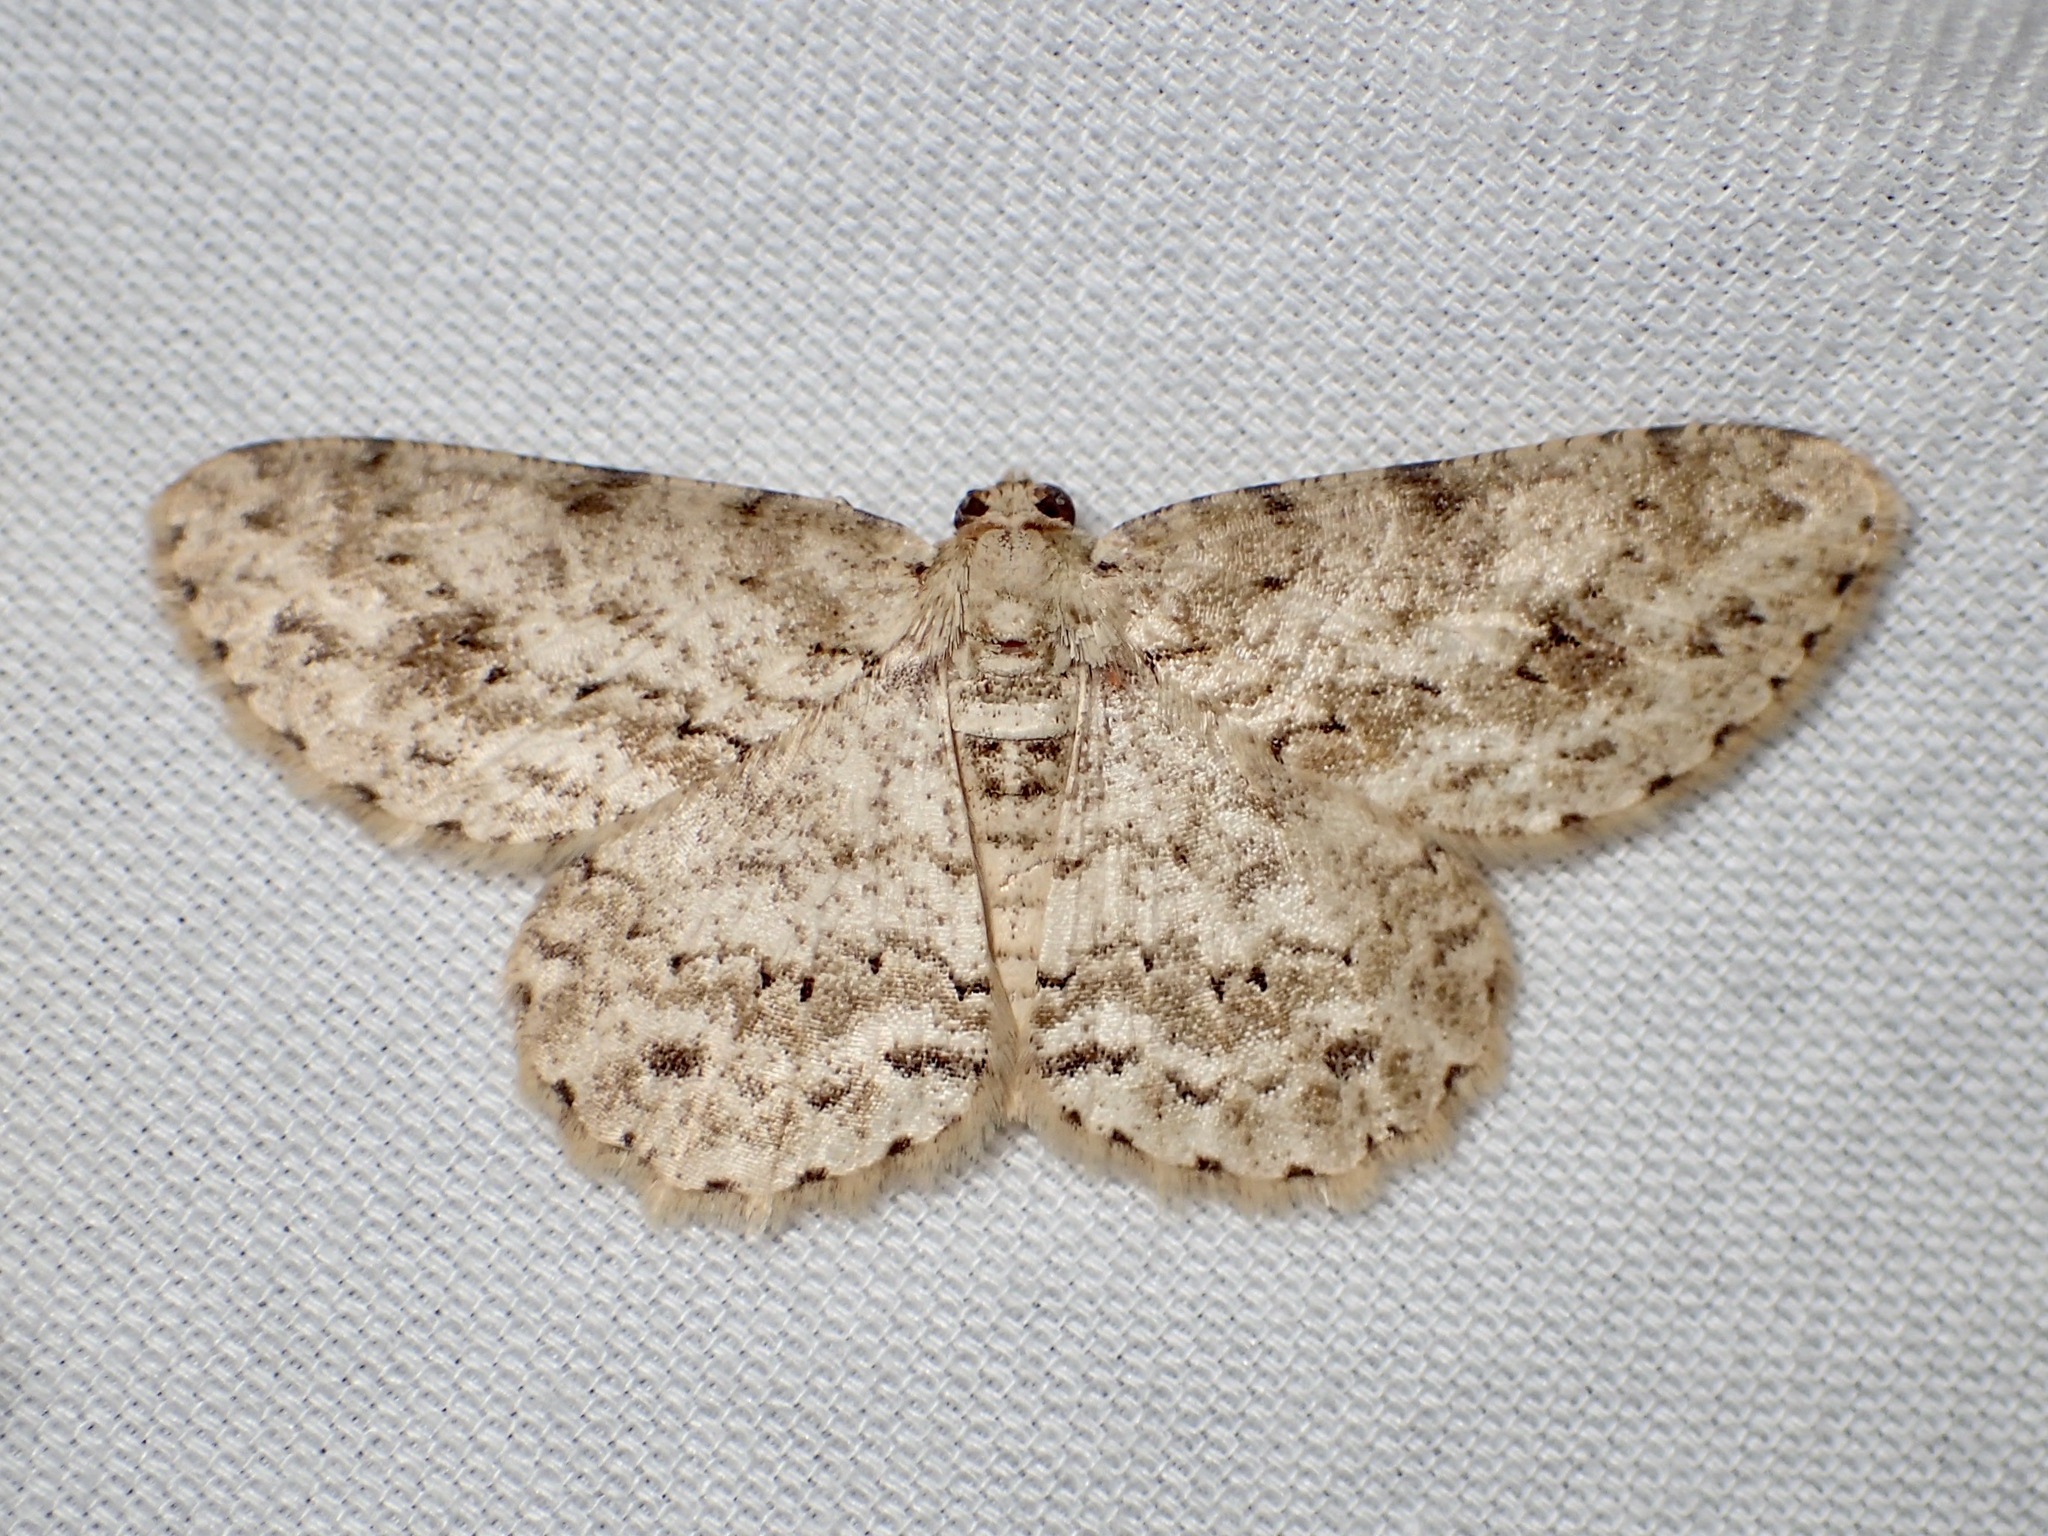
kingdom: Animalia
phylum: Arthropoda
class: Insecta
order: Lepidoptera
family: Geometridae
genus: Ectropis
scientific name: Ectropis bhurmitra
